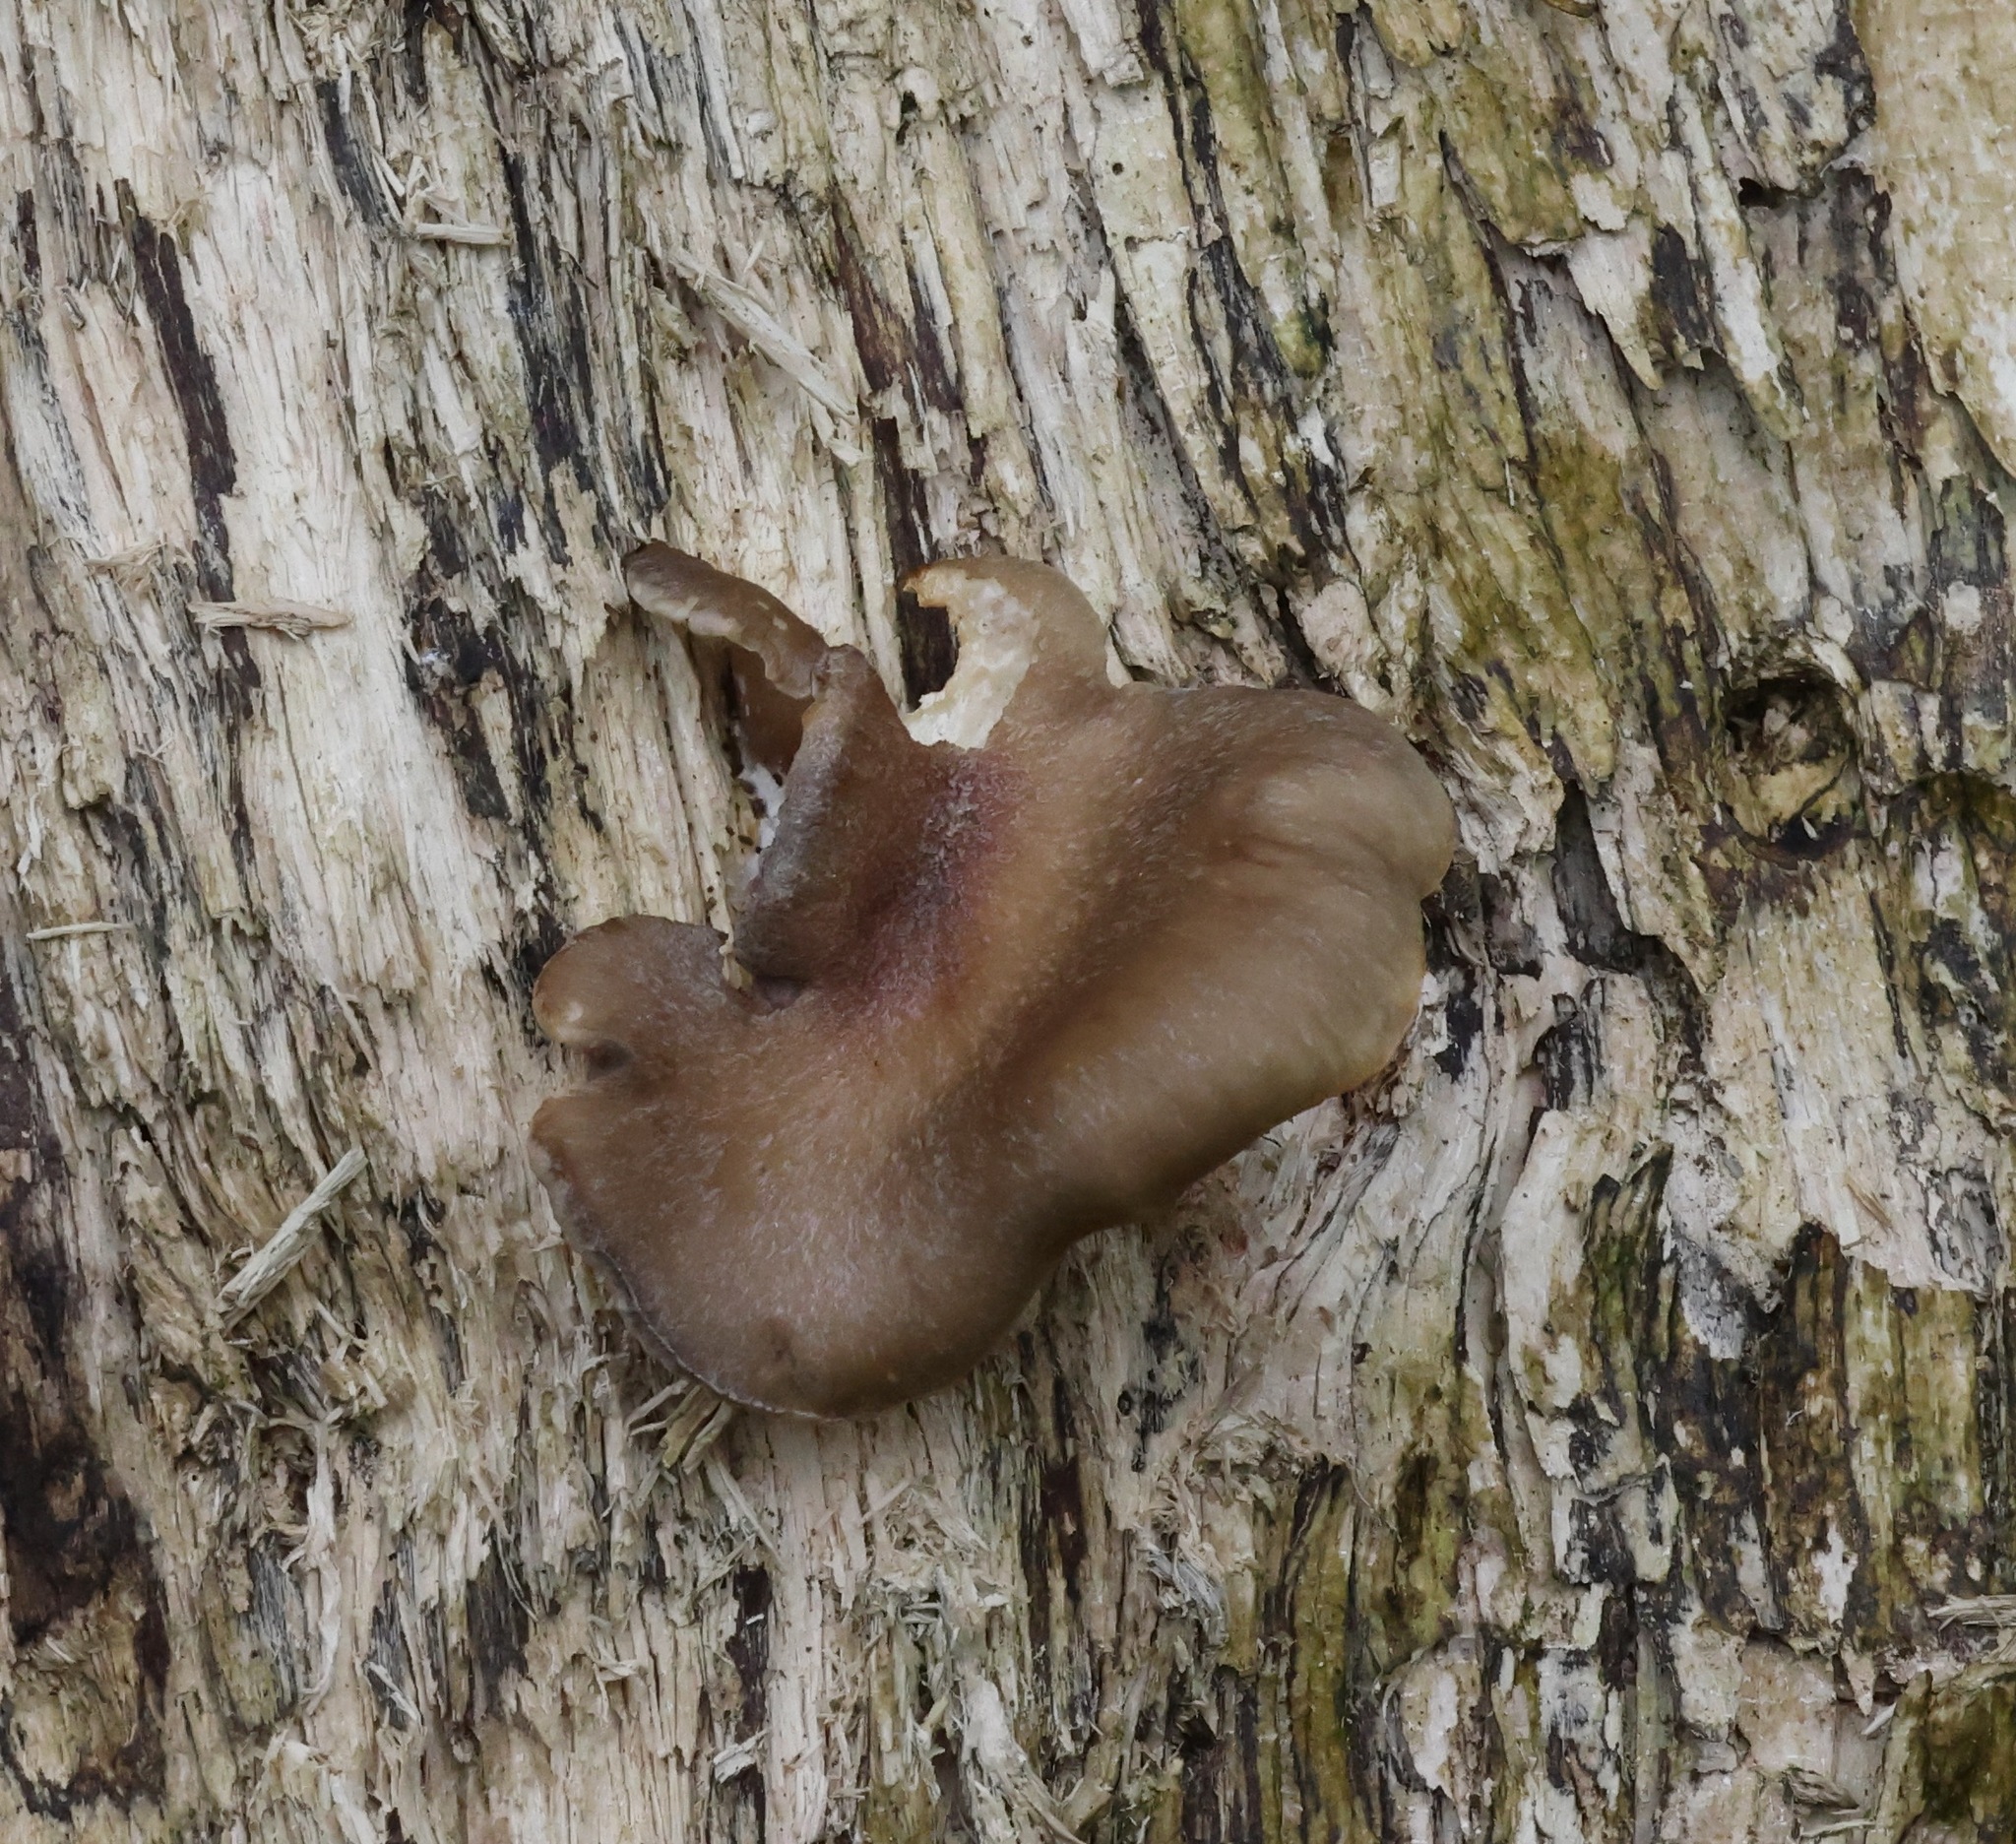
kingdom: Fungi
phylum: Basidiomycota
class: Agaricomycetes
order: Agaricales
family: Pleurotaceae
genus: Pleurotus
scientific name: Pleurotus ostreatus
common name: Oyster mushroom
